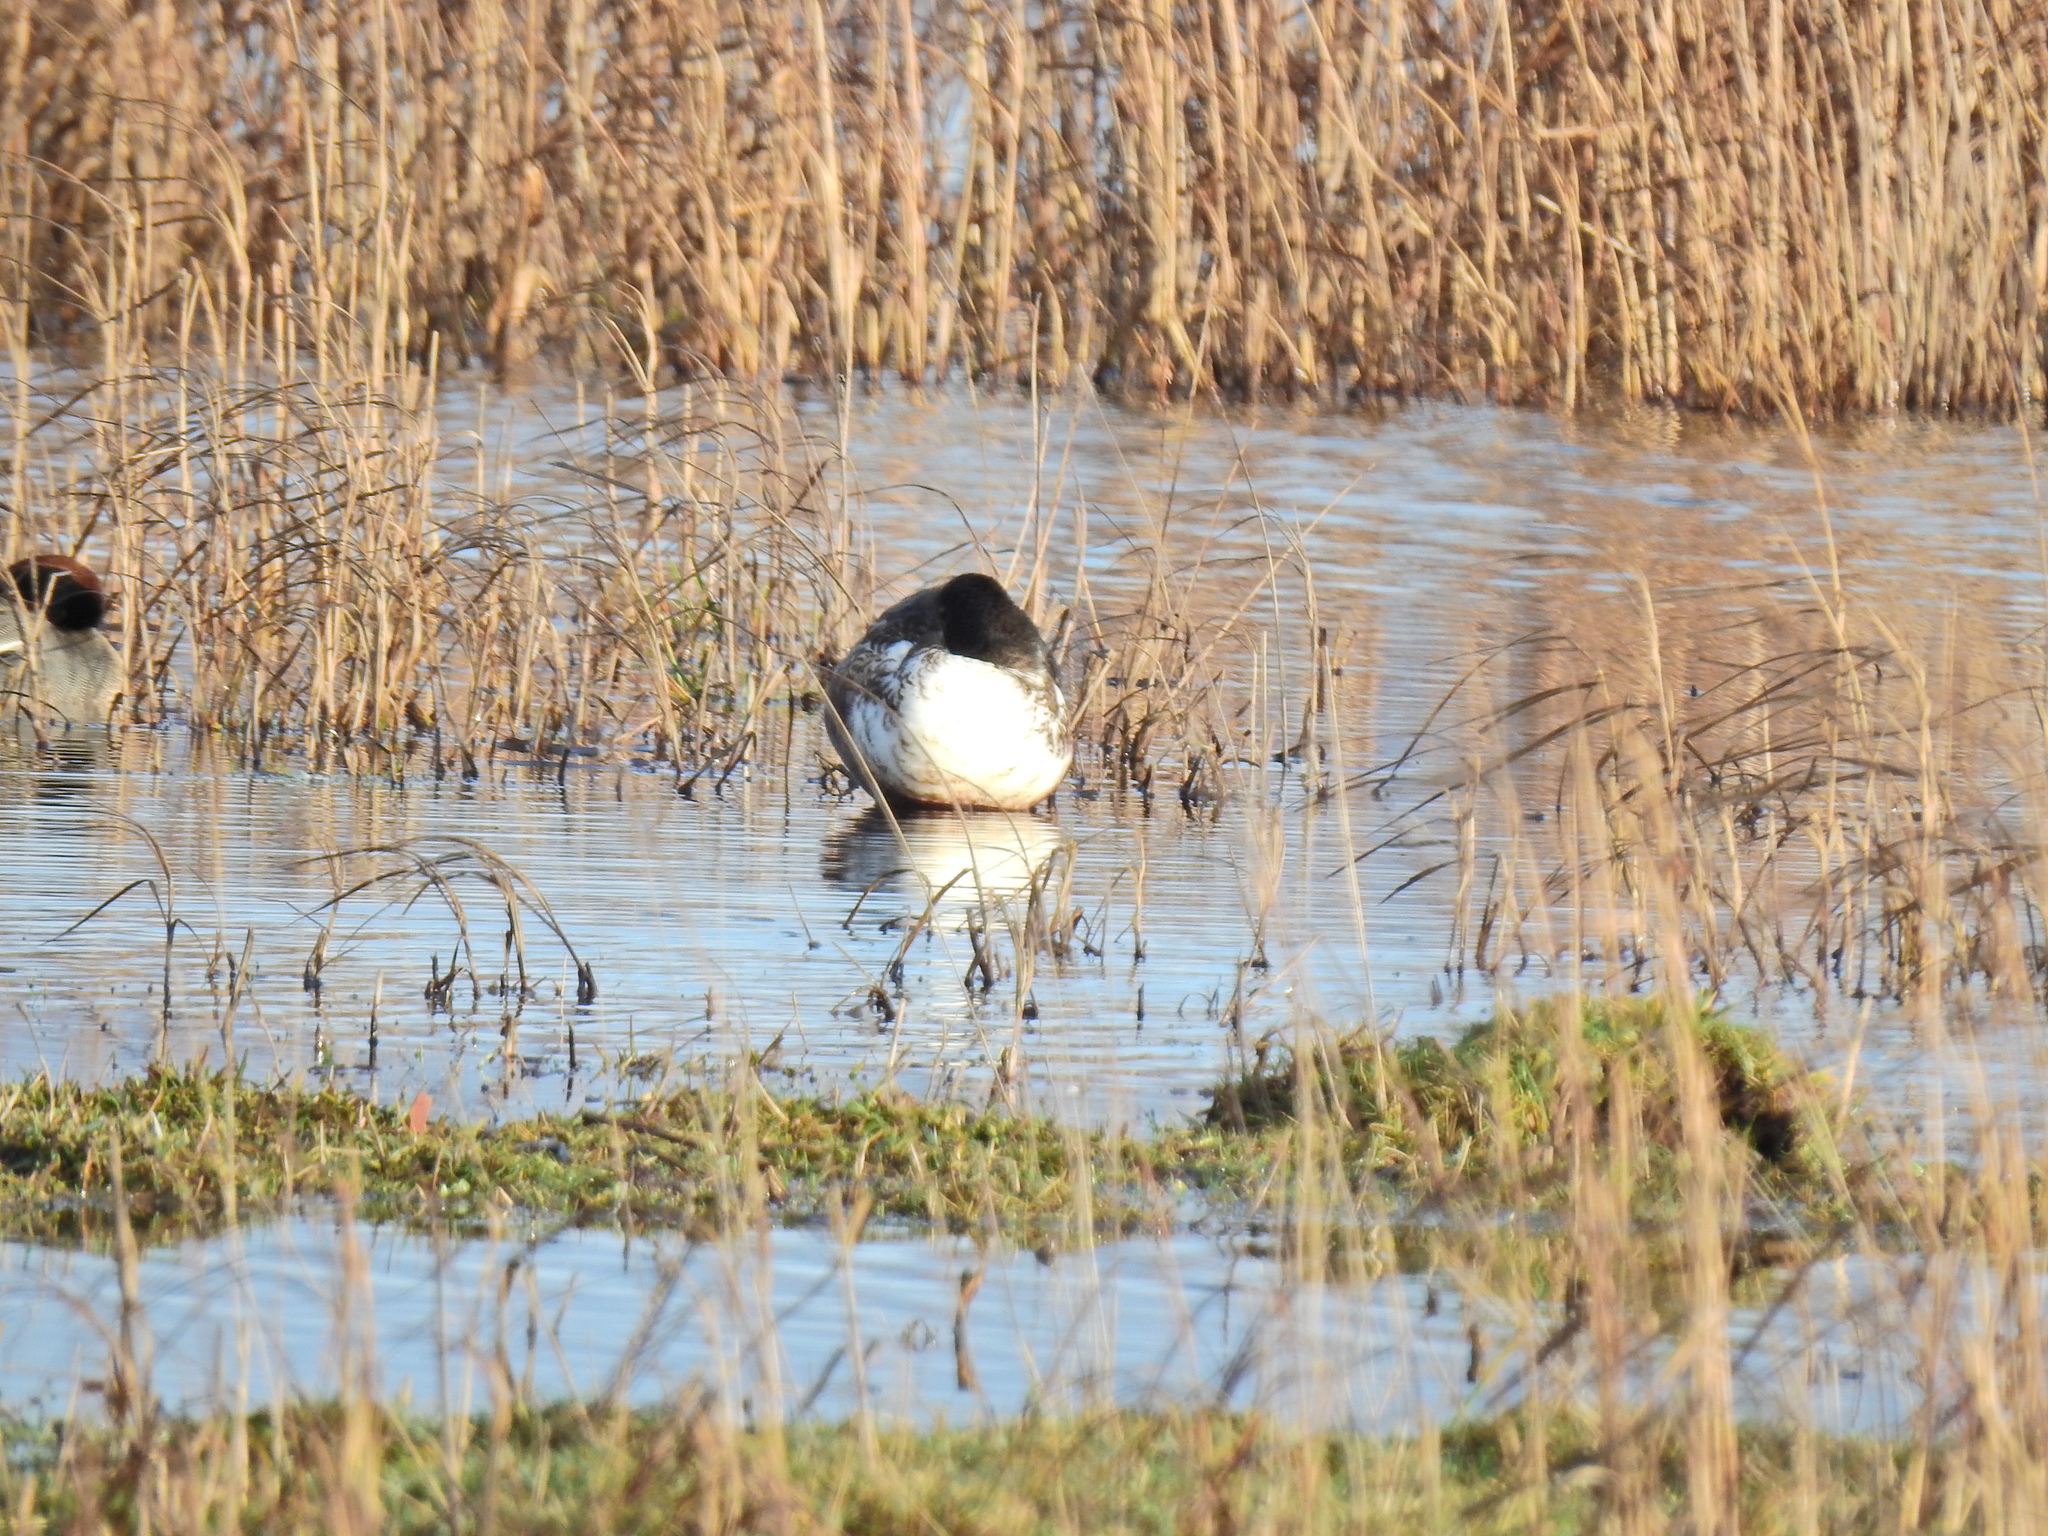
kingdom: Animalia
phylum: Chordata
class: Aves
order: Anseriformes
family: Anatidae
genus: Spatula
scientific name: Spatula clypeata
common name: Northern shoveler
